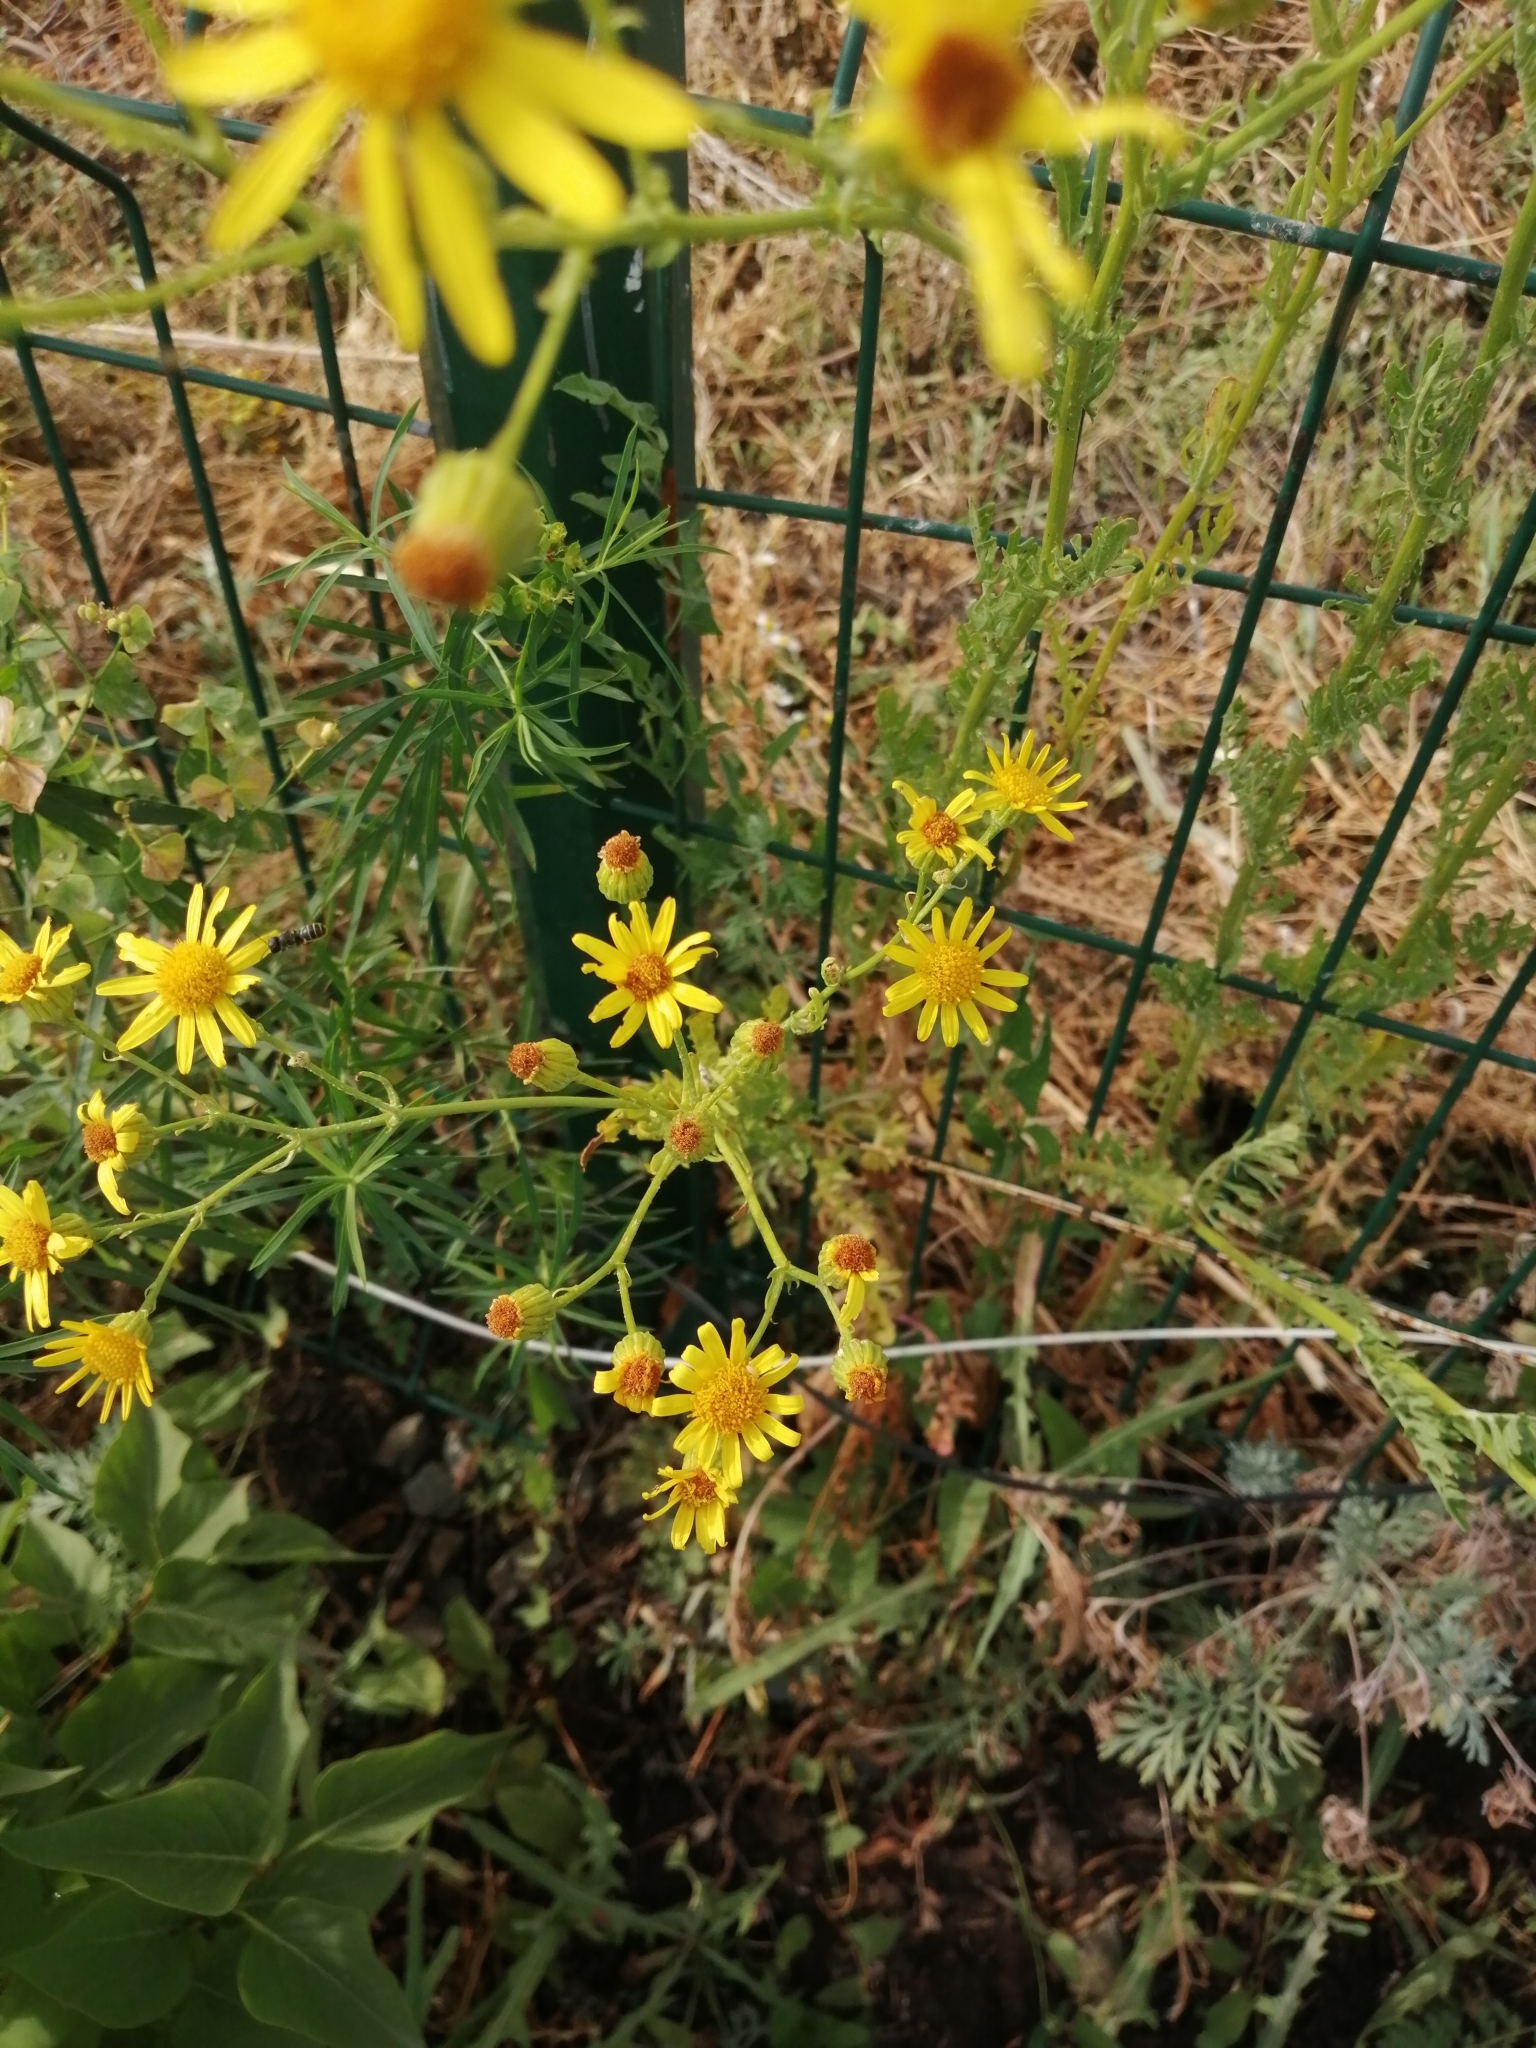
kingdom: Plantae
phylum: Tracheophyta
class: Magnoliopsida
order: Asterales
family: Asteraceae
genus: Jacobaea
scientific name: Jacobaea vulgaris
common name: Stinking willie
